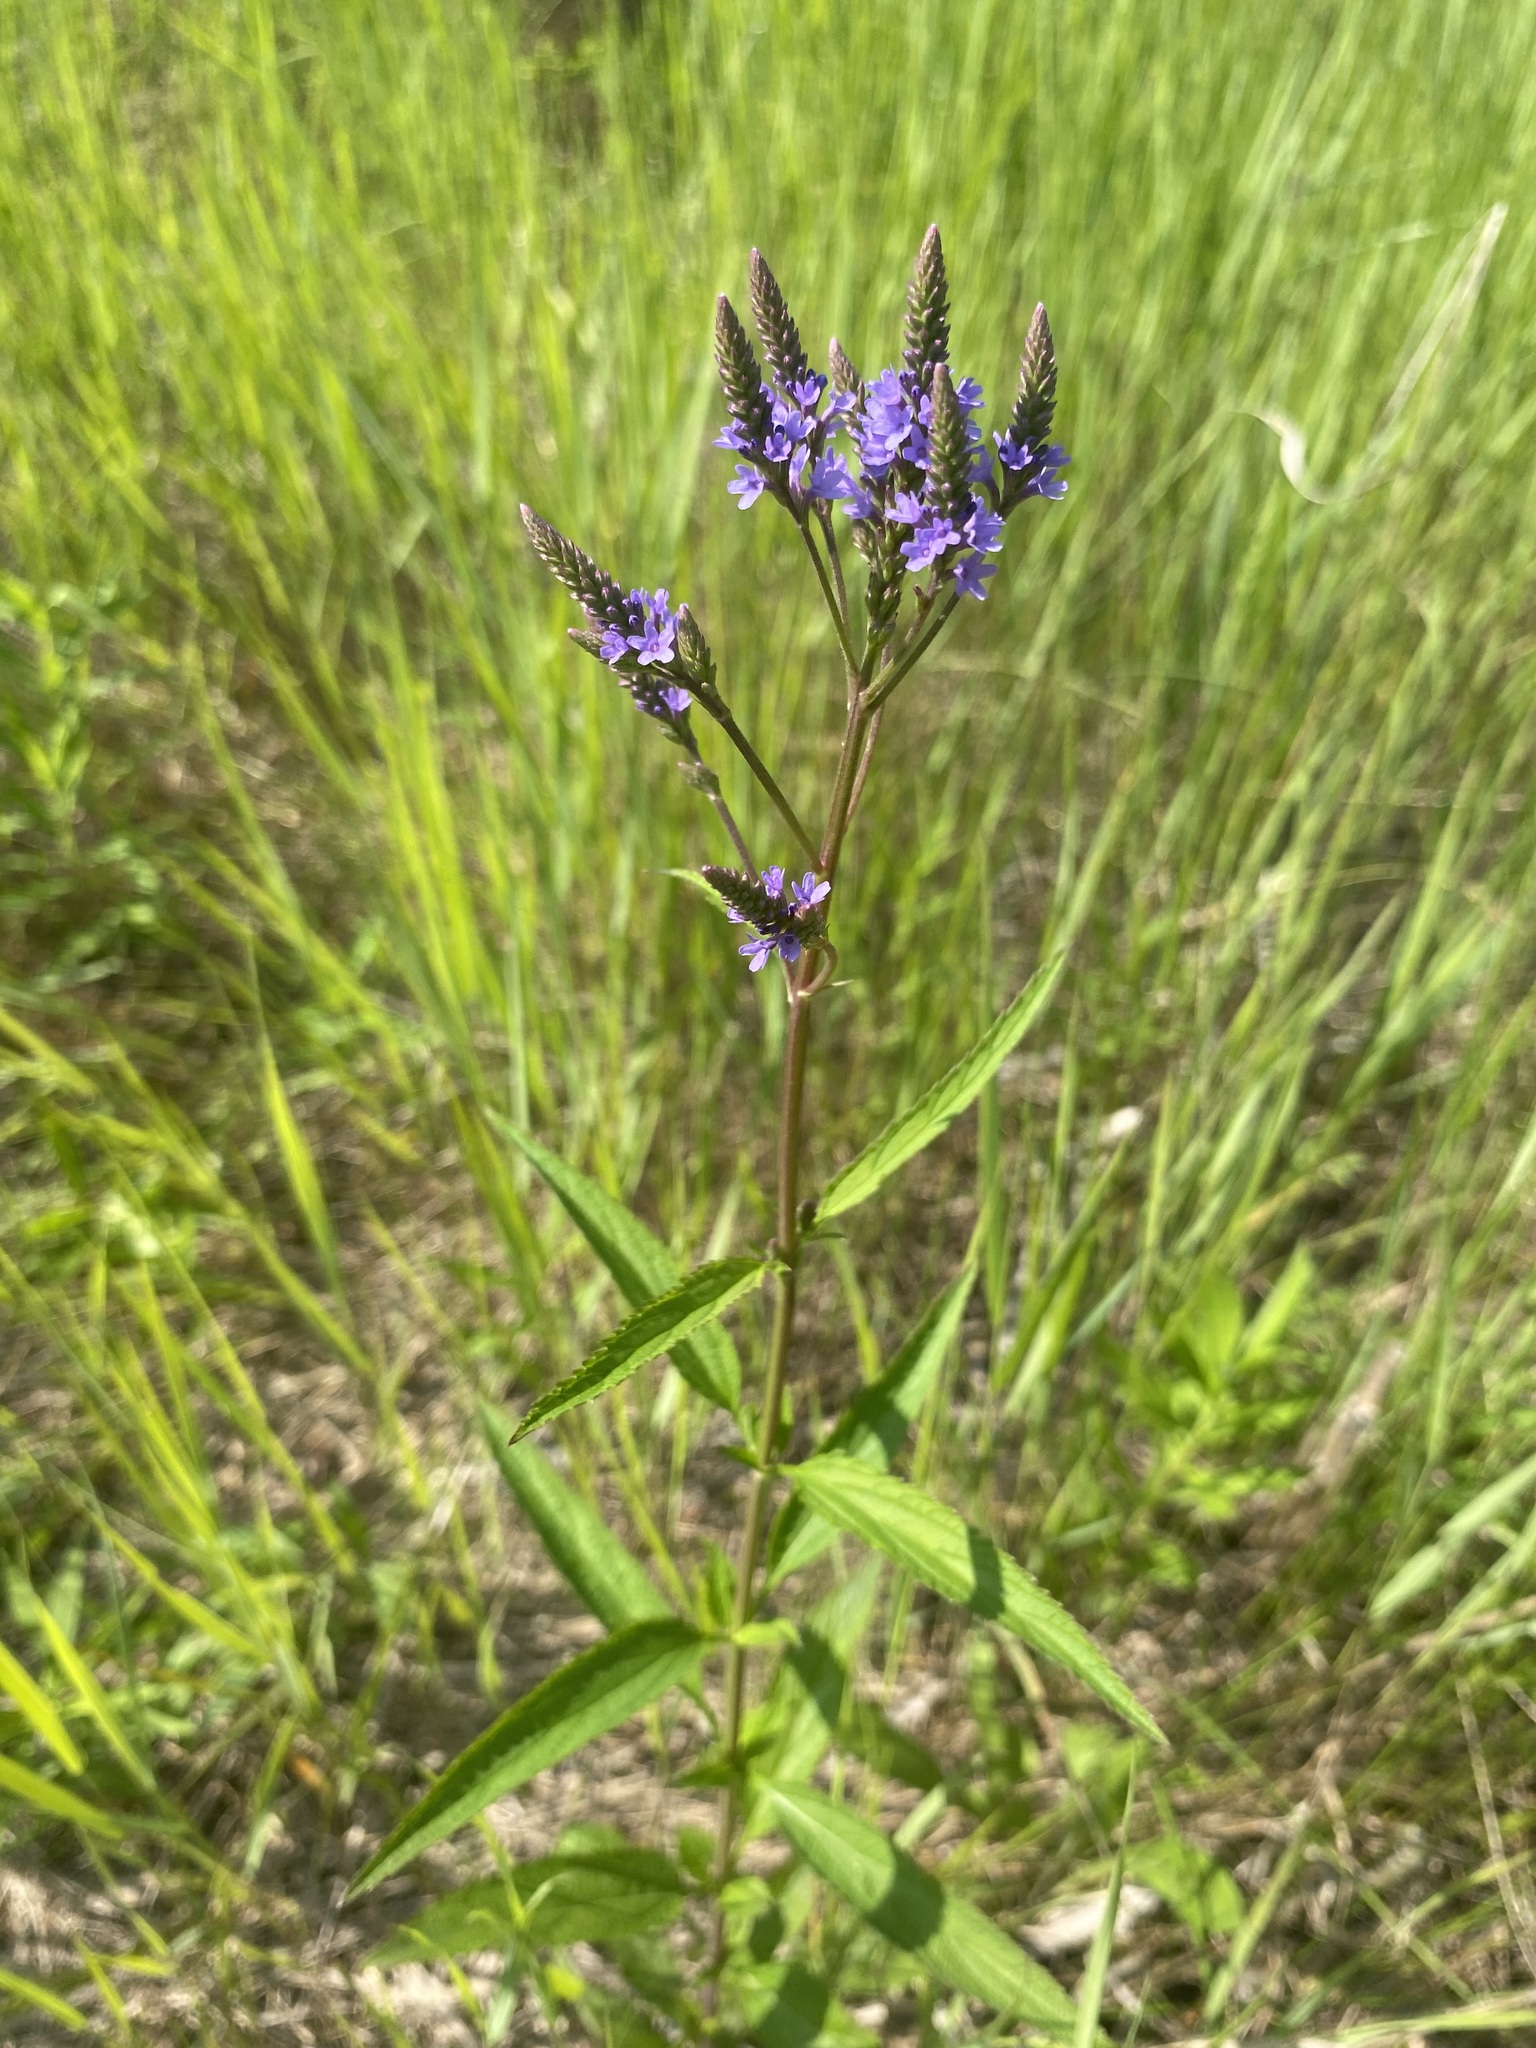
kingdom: Plantae
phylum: Tracheophyta
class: Magnoliopsida
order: Lamiales
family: Verbenaceae
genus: Verbena
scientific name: Verbena hastata
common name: American blue vervain
